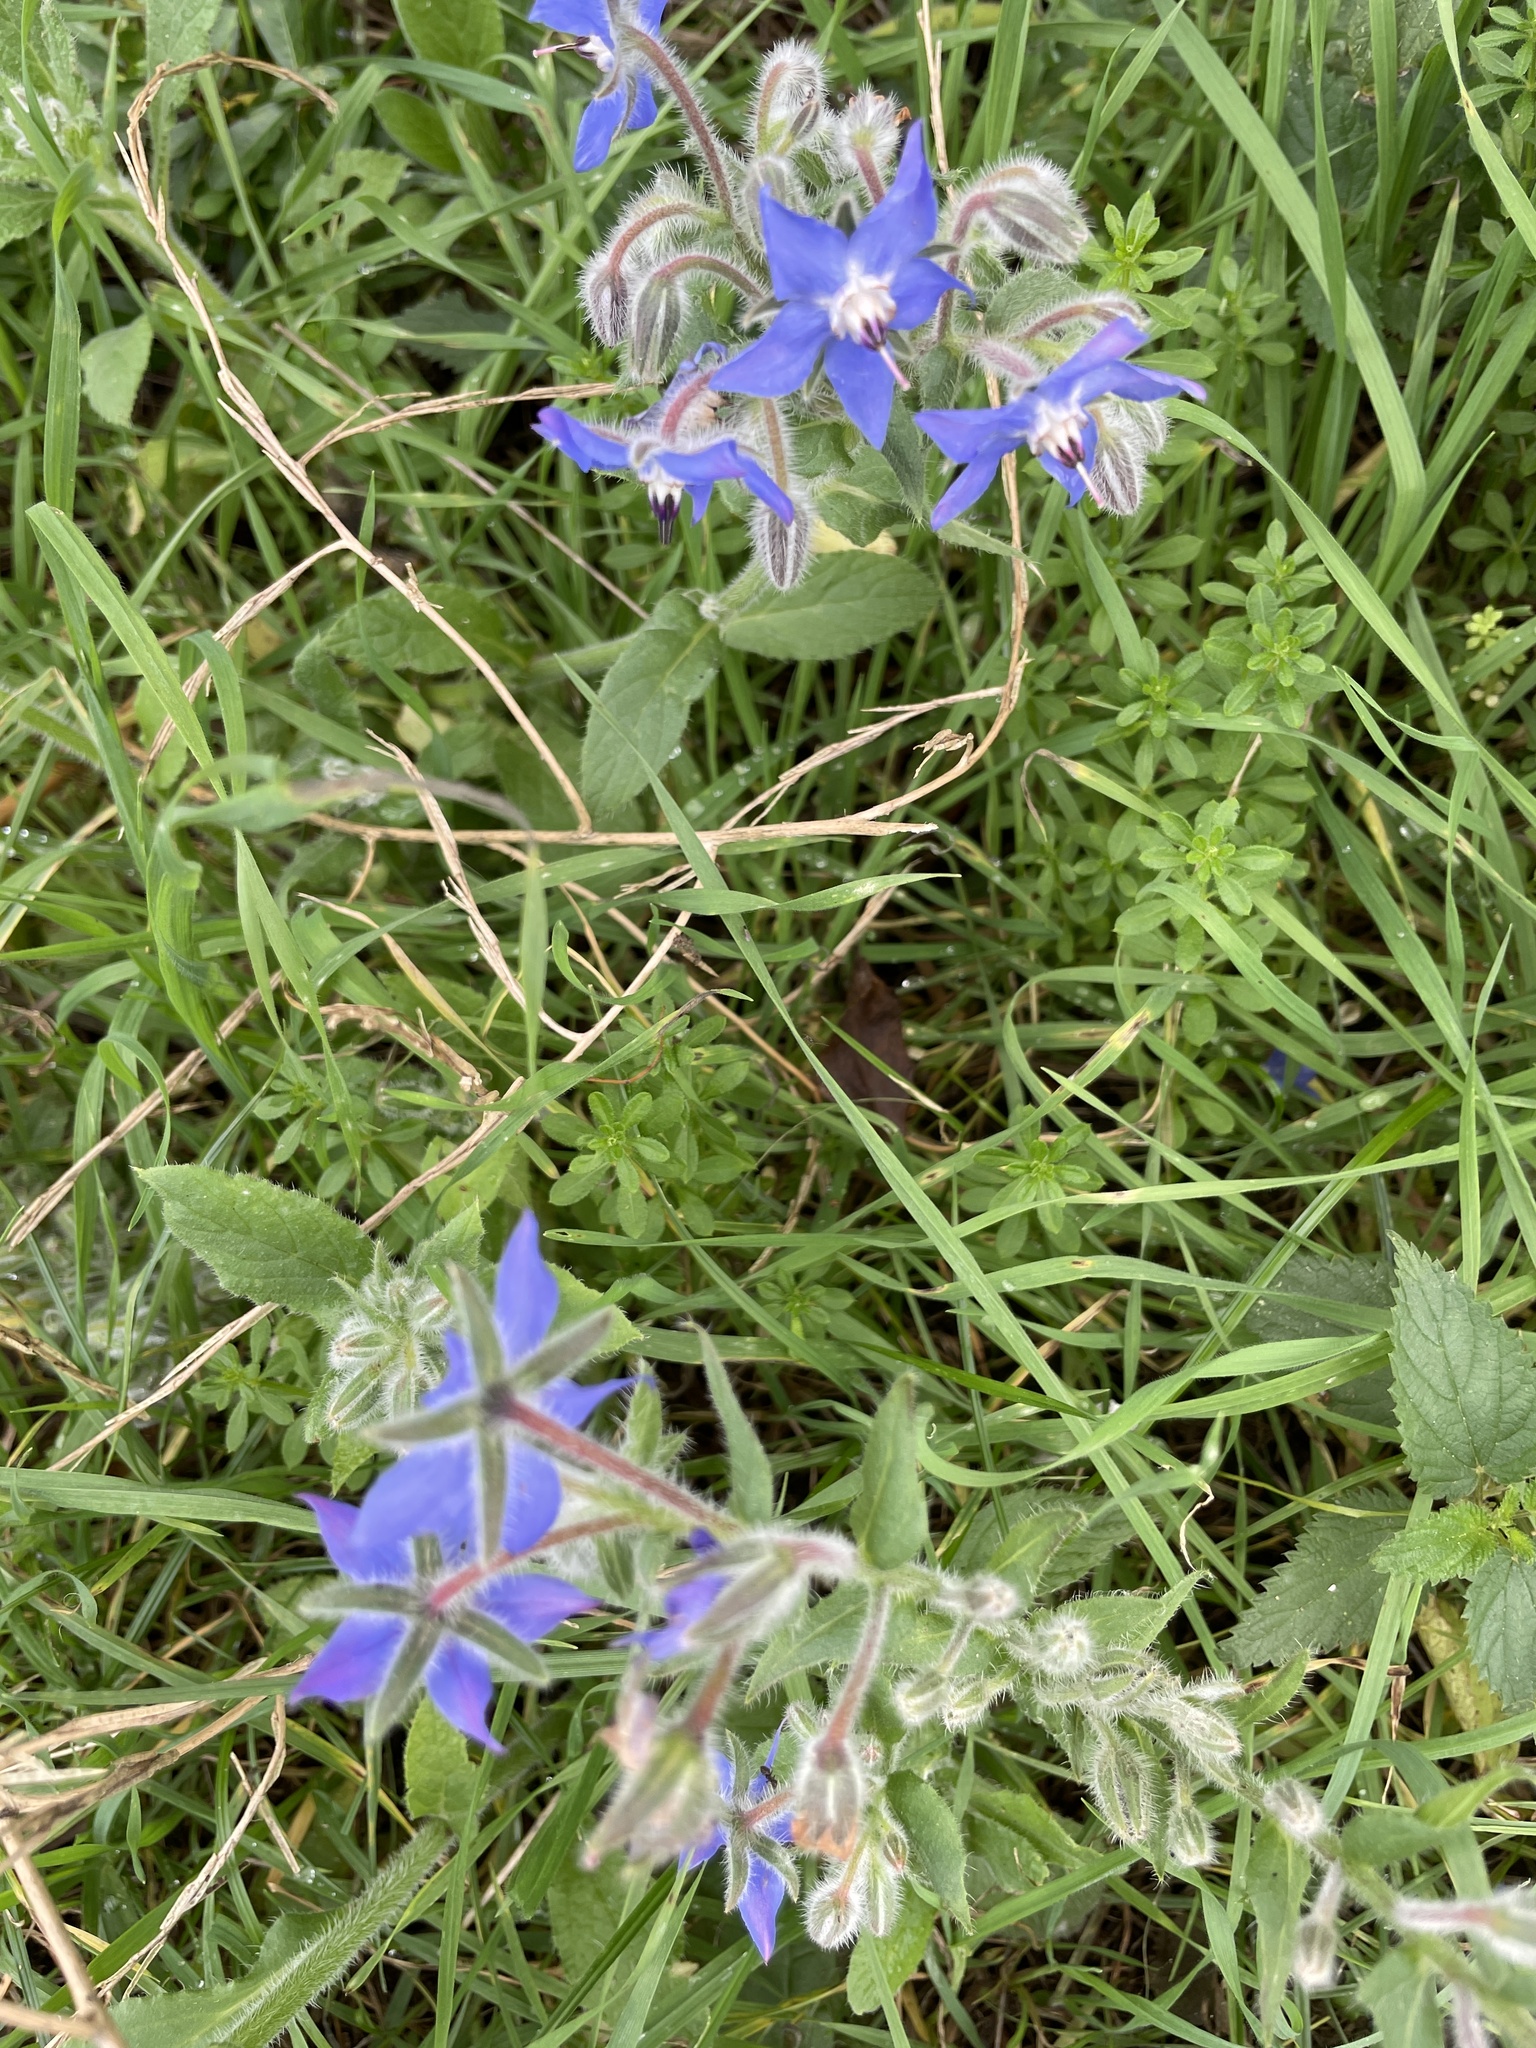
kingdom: Plantae
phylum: Tracheophyta
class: Magnoliopsida
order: Boraginales
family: Boraginaceae
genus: Borago
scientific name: Borago officinalis
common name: Borage
